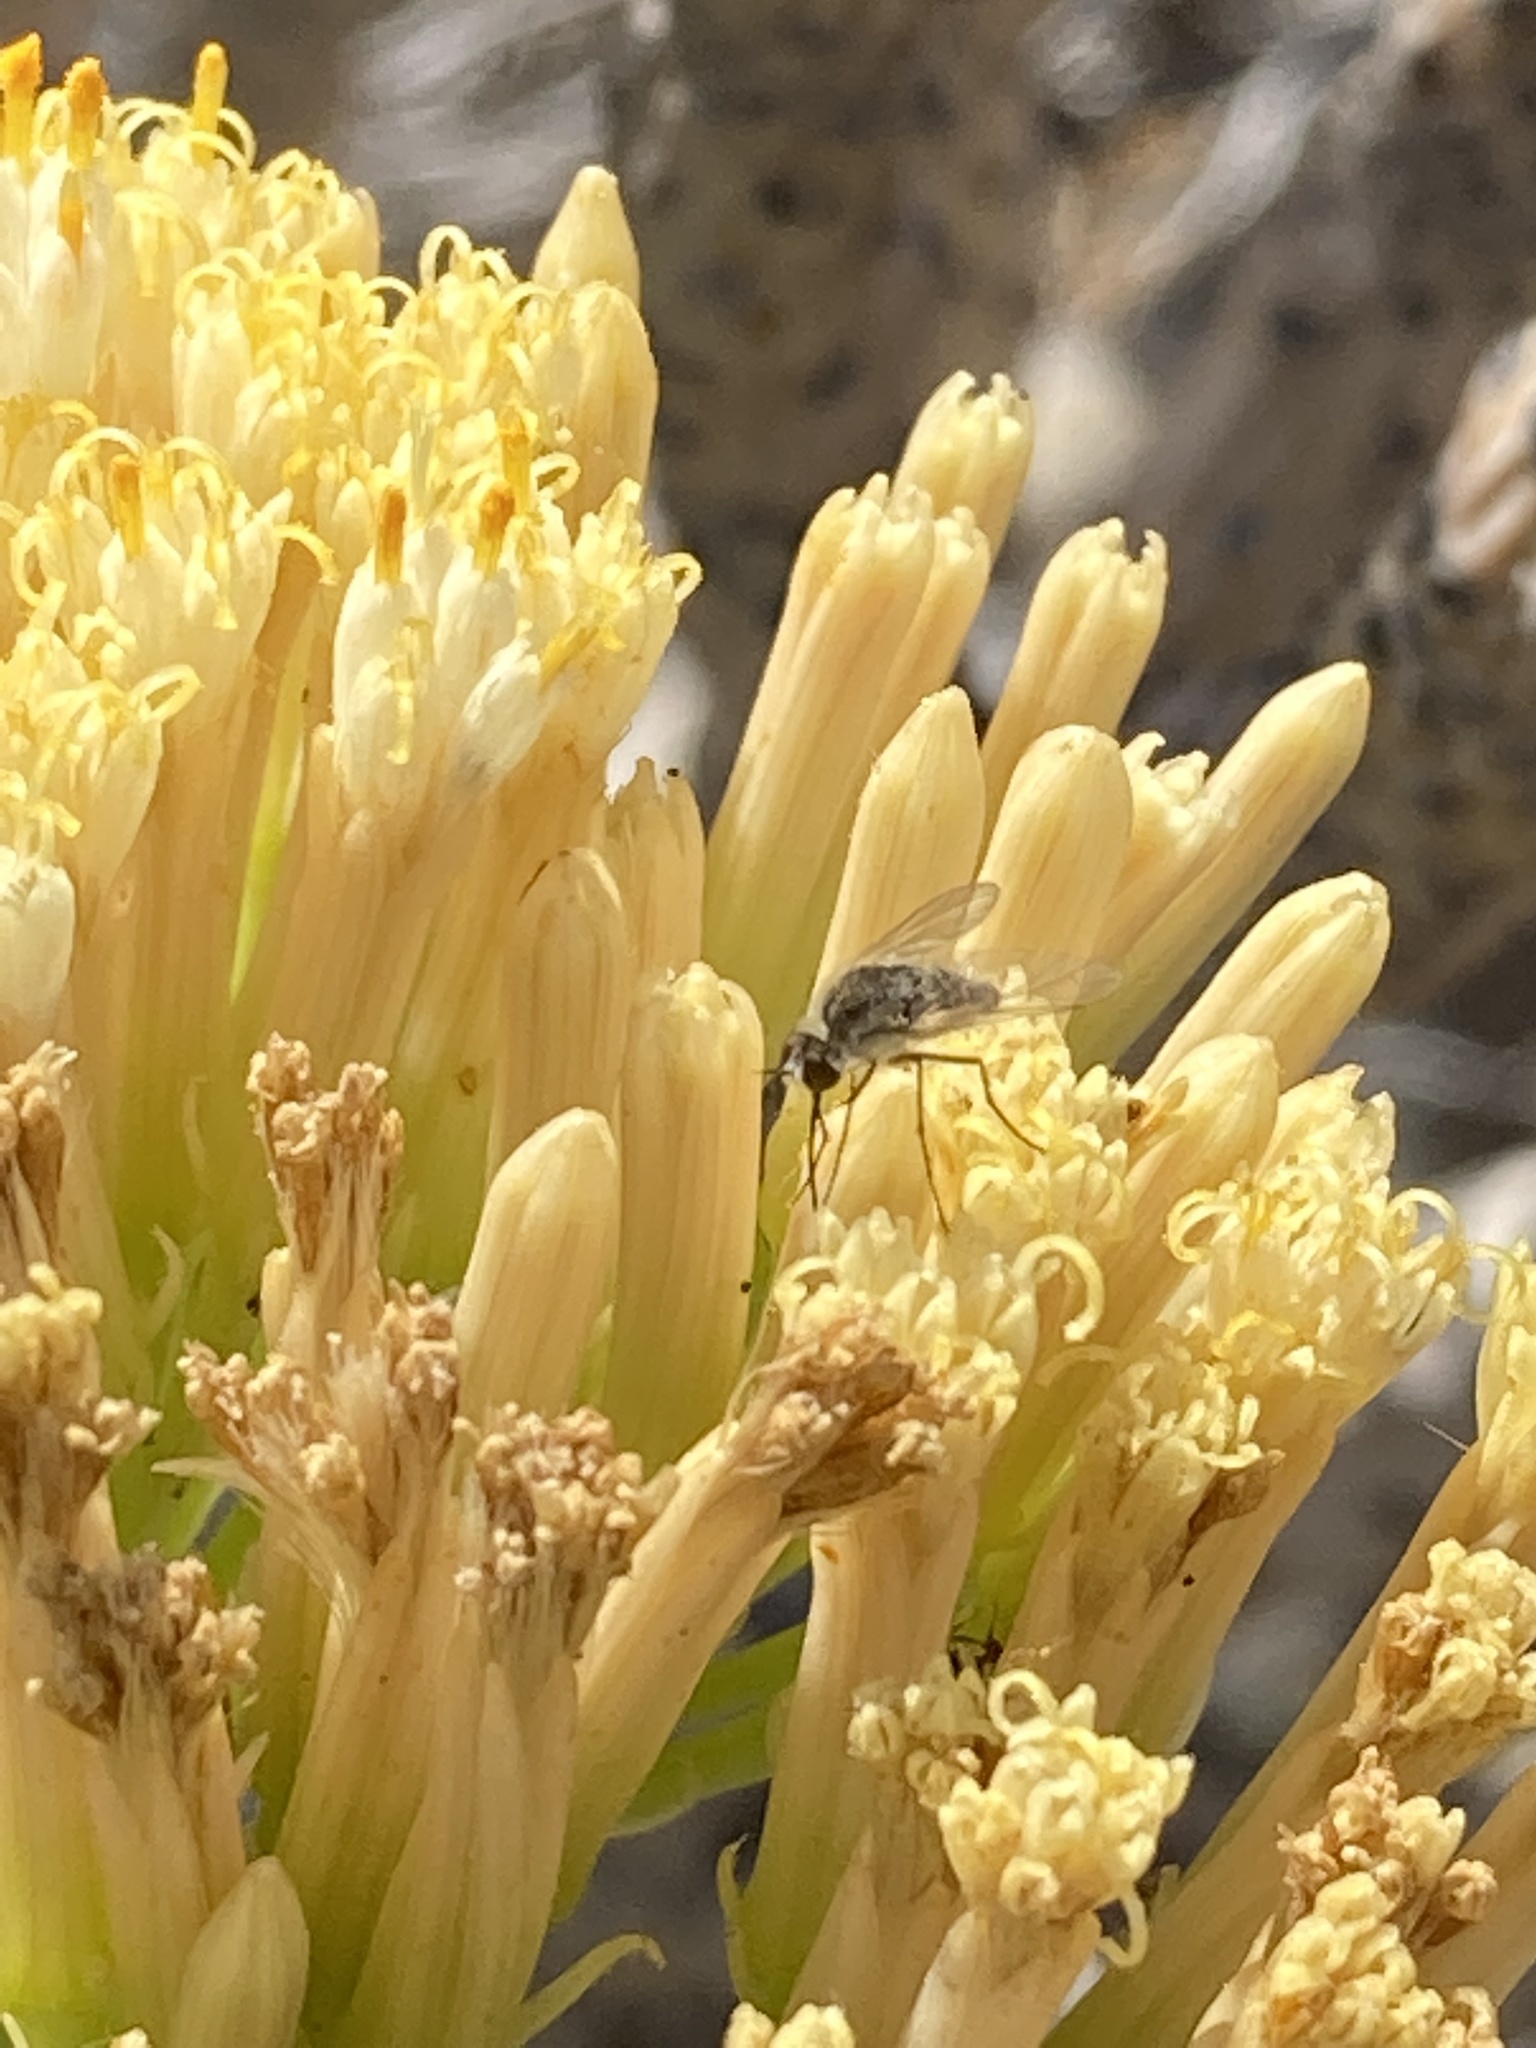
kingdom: Animalia
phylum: Arthropoda
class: Insecta
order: Diptera
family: Bombyliidae
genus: Geron
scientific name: Geron hesperidum
